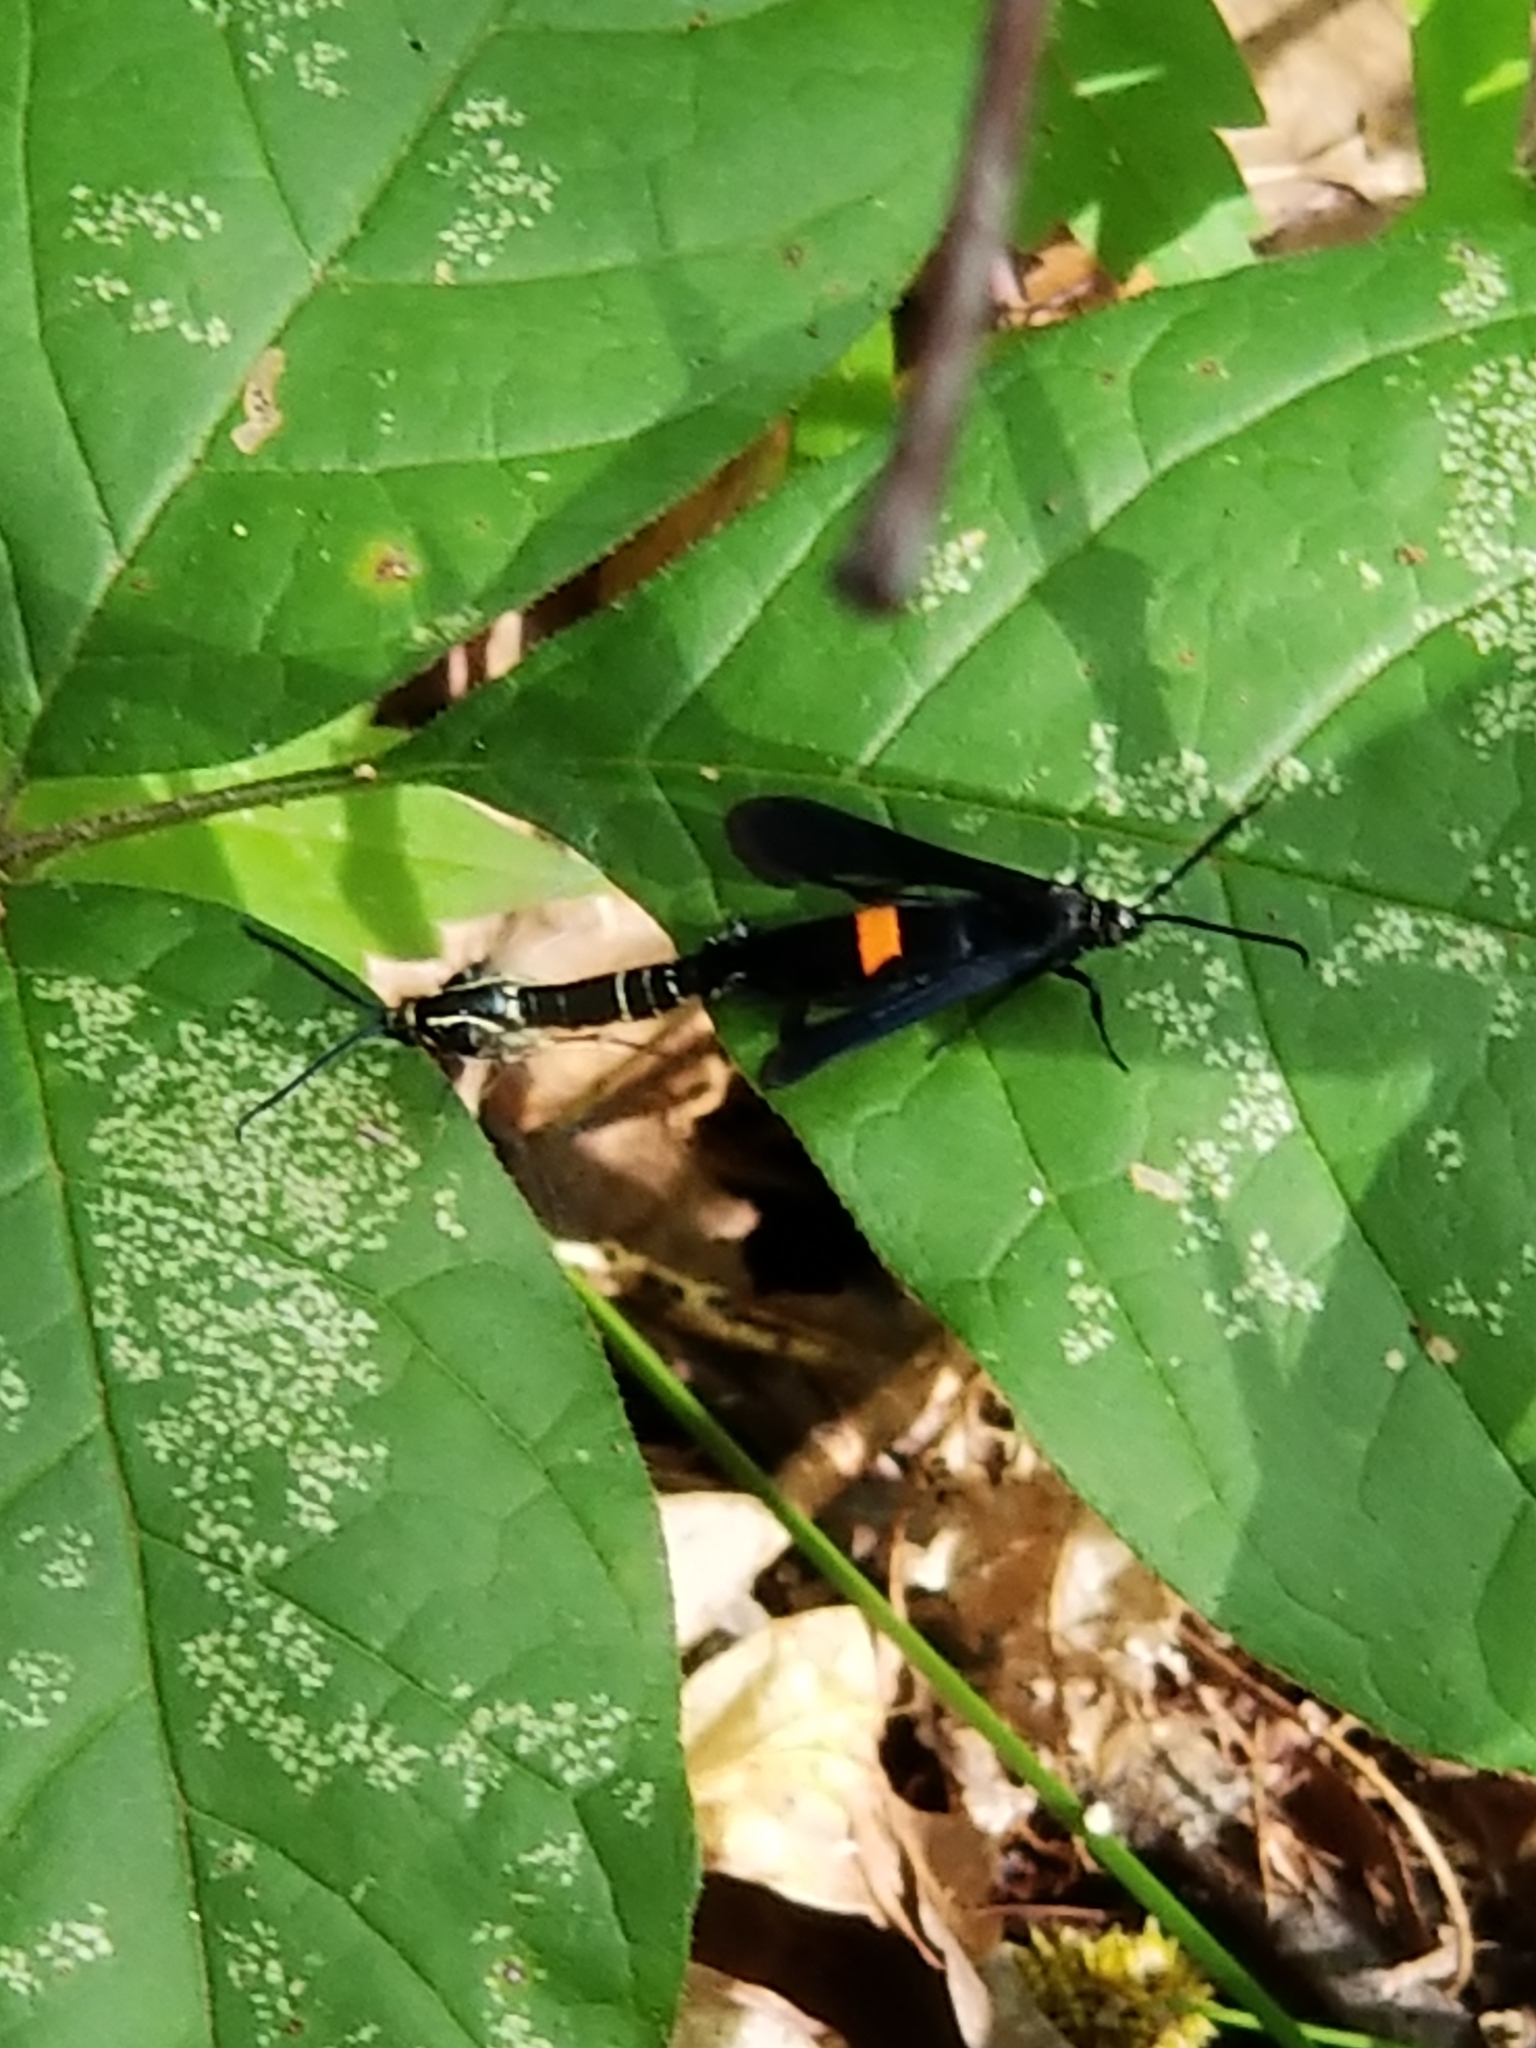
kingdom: Animalia
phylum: Arthropoda
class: Insecta
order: Lepidoptera
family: Sesiidae
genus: Synanthedon
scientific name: Synanthedon exitiosa
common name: Peachtree borer moth
